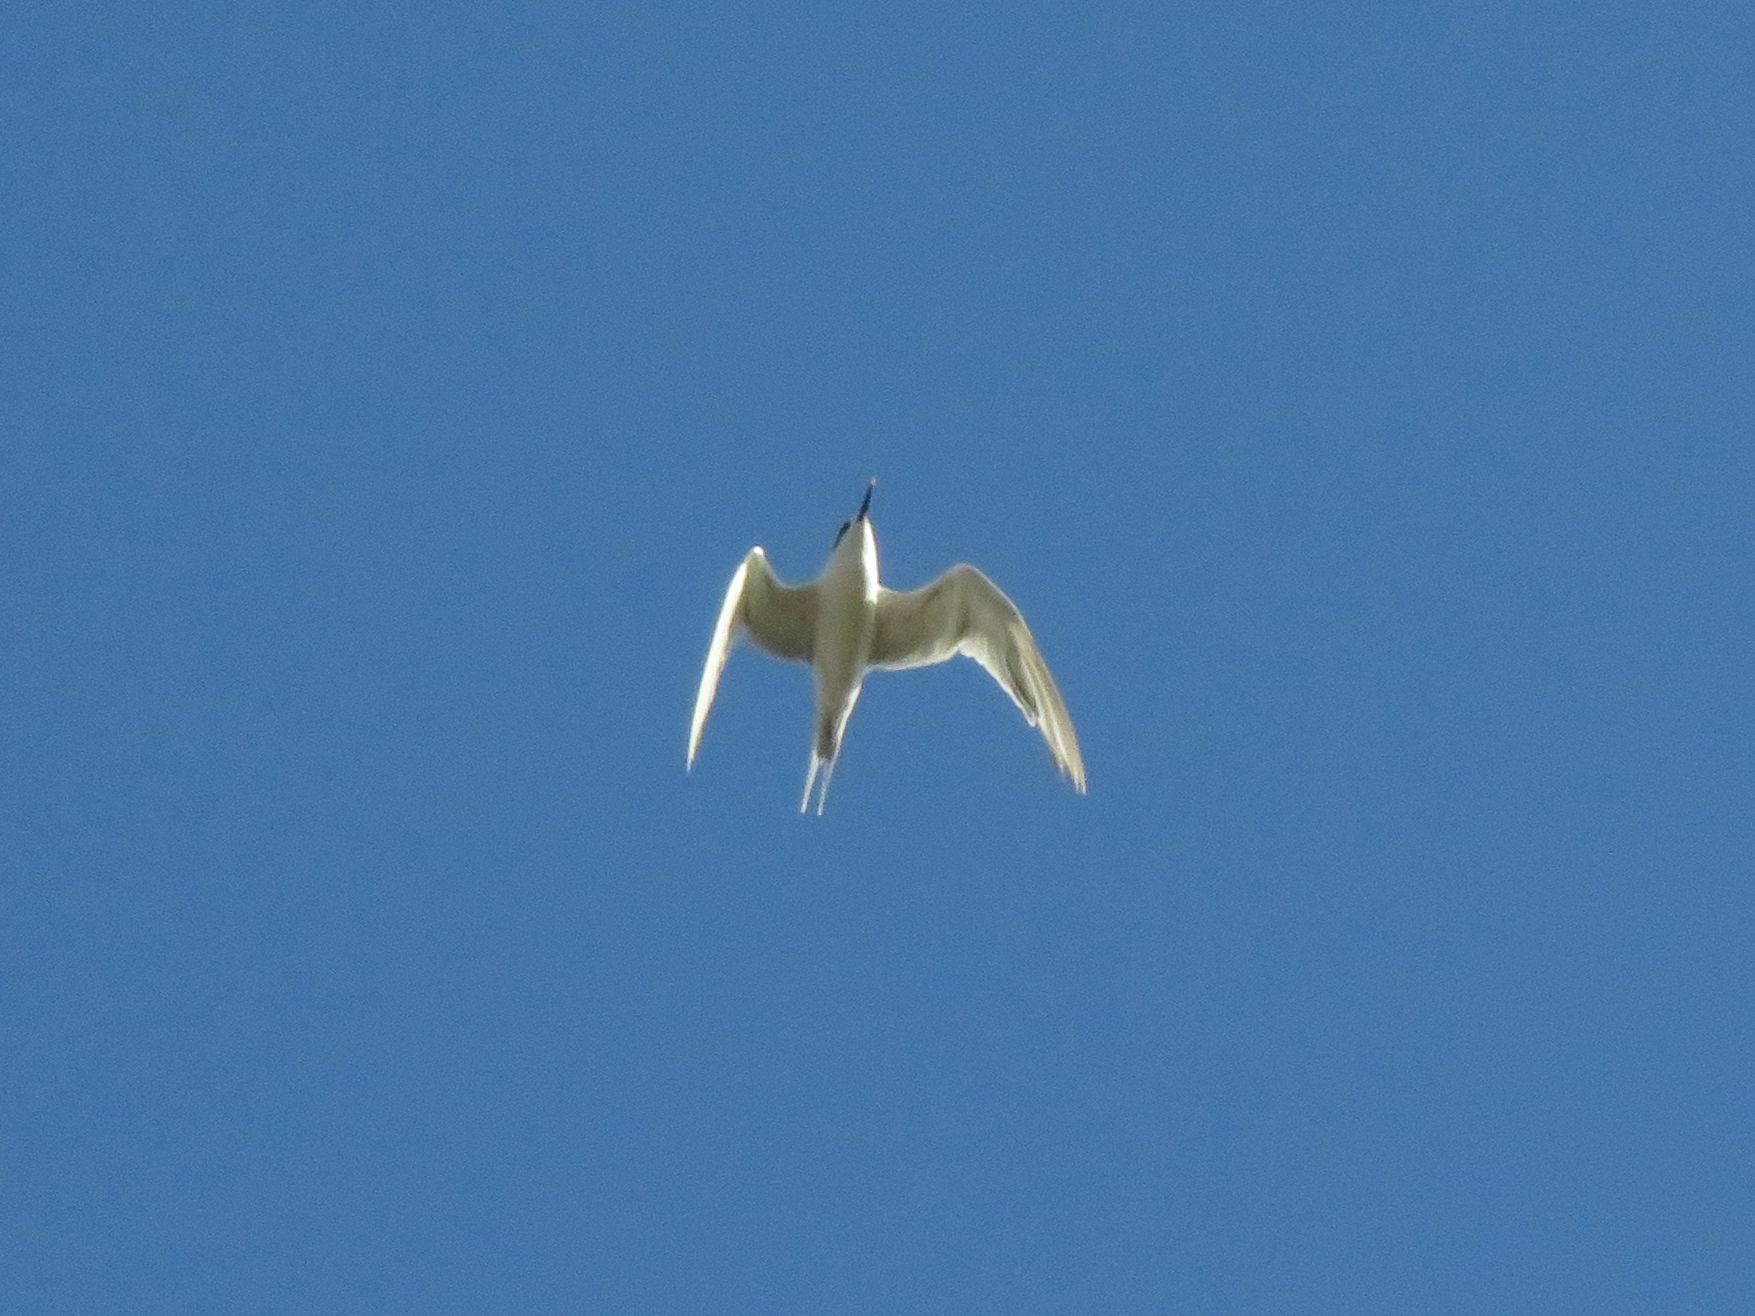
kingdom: Animalia
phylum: Chordata
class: Aves
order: Charadriiformes
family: Laridae
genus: Thalasseus
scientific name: Thalasseus sandvicensis
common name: Sandwich tern
